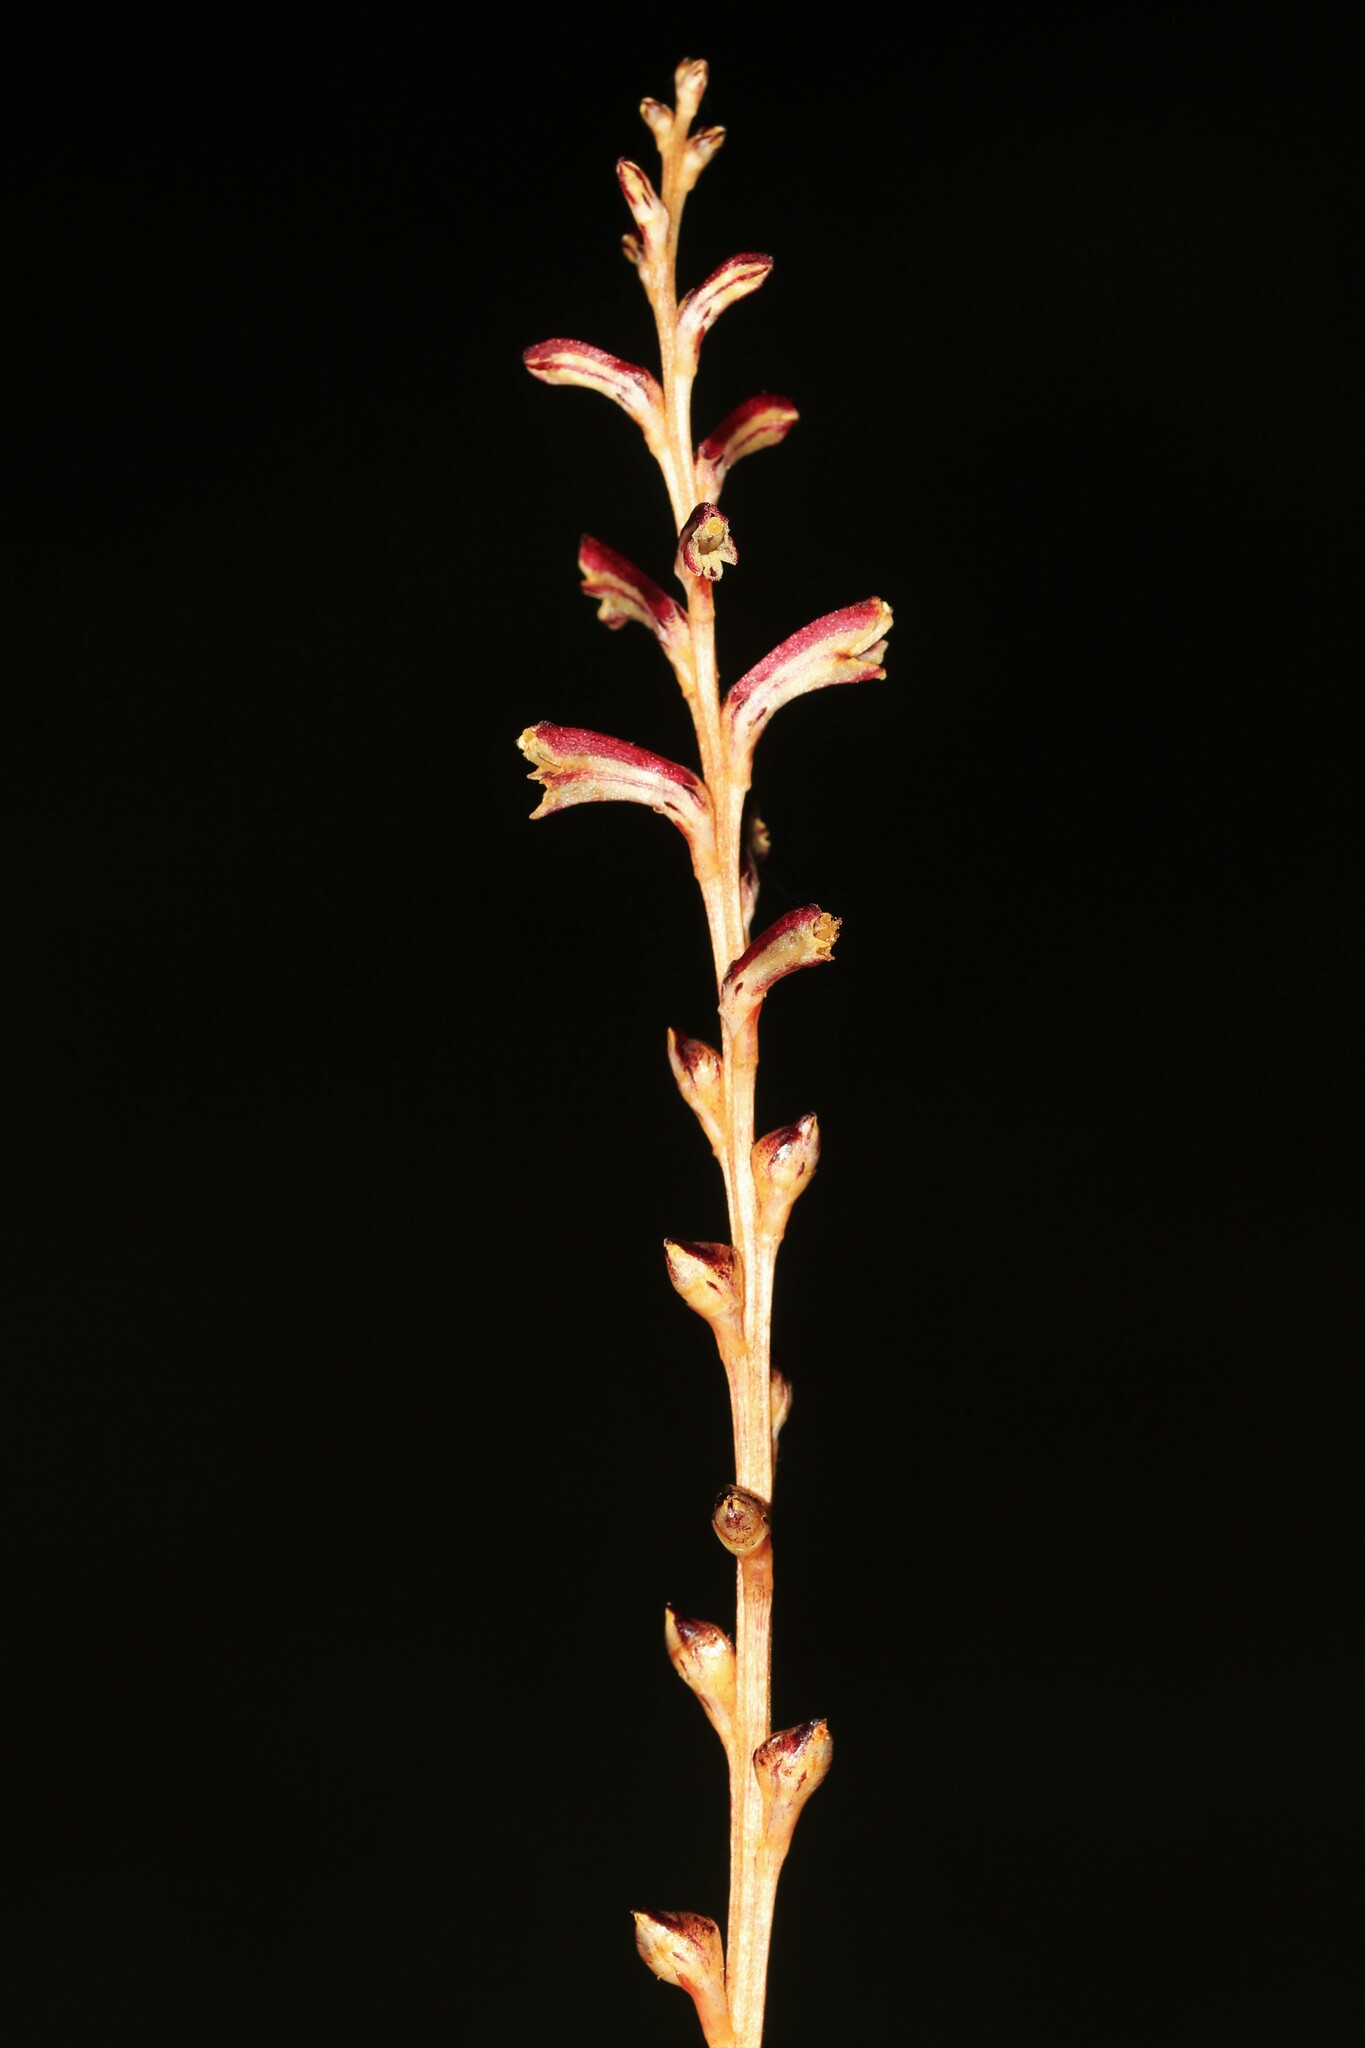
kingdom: Plantae
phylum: Tracheophyta
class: Magnoliopsida
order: Lamiales
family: Orobanchaceae
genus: Epifagus
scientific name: Epifagus virginiana
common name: Beechdrops
